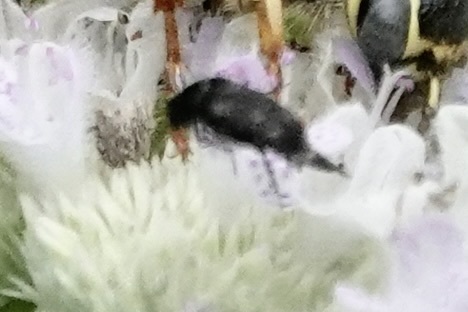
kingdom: Animalia
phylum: Arthropoda
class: Insecta
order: Coleoptera
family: Mordellidae
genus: Mordella
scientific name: Mordella marginata
